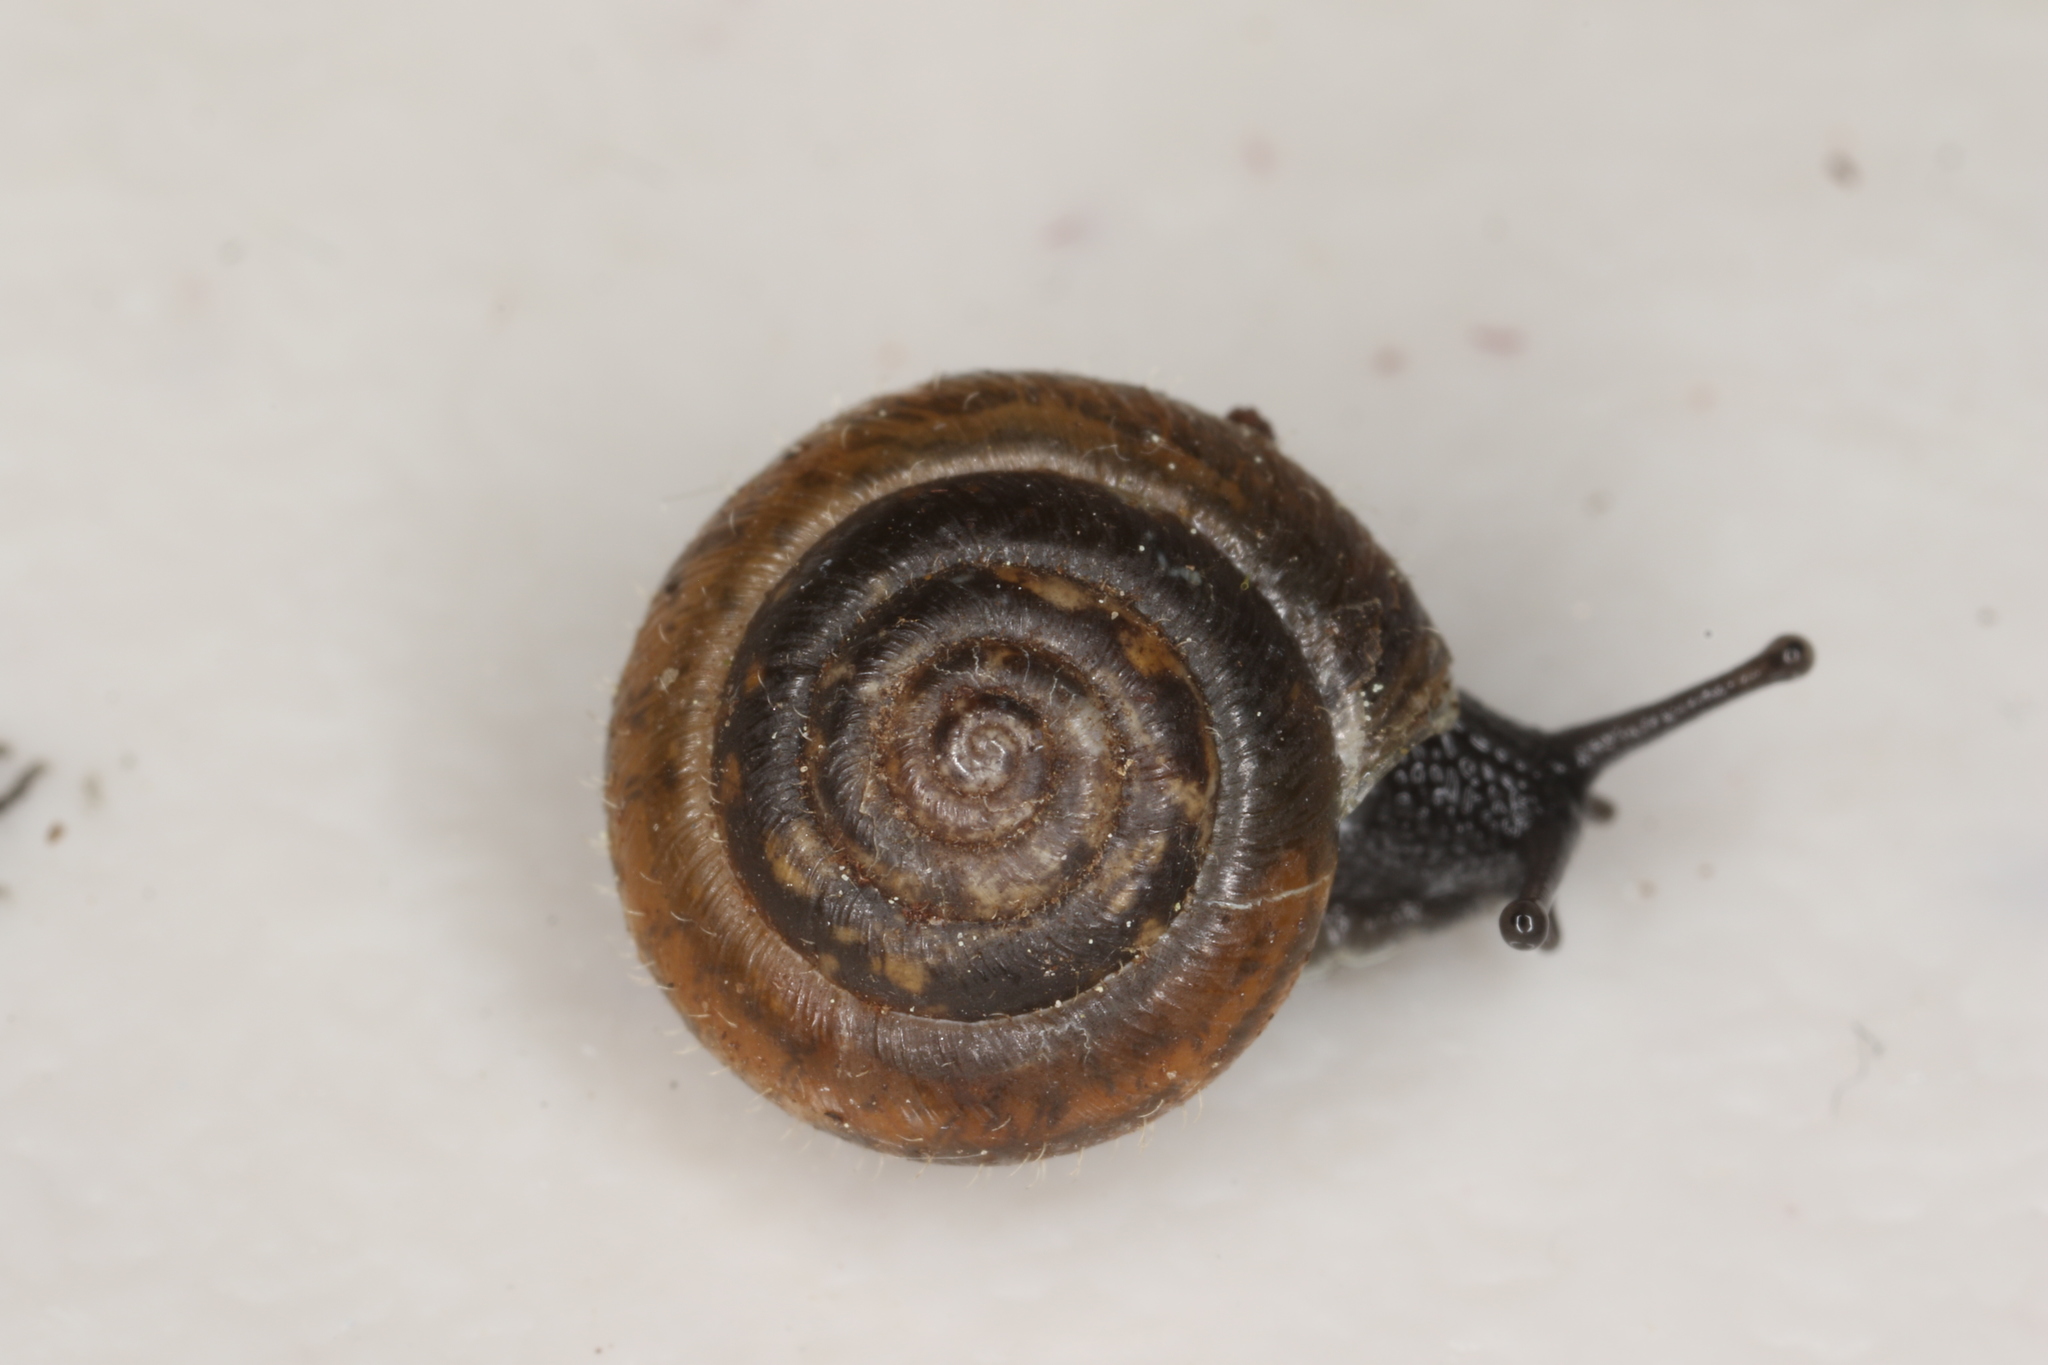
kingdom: Animalia
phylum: Mollusca
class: Gastropoda
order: Stylommatophora
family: Hygromiidae
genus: Trochulus
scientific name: Trochulus hispidus
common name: Hairy snail
